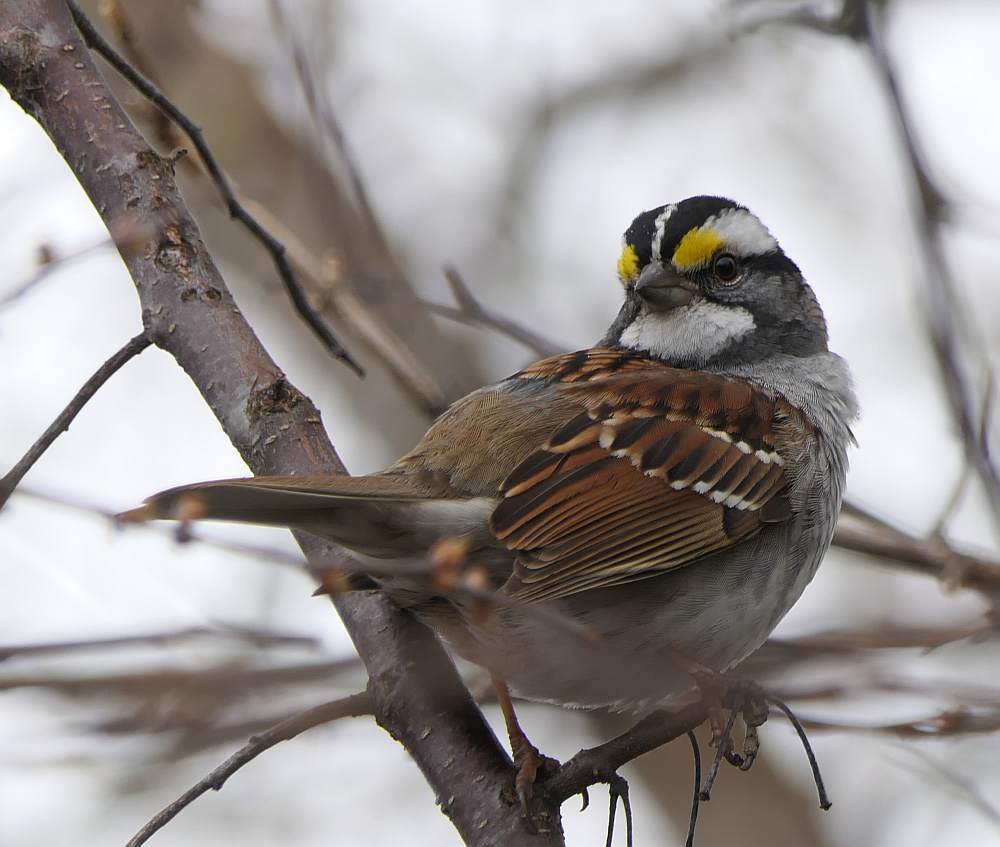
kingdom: Animalia
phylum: Chordata
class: Aves
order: Passeriformes
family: Passerellidae
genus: Zonotrichia
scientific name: Zonotrichia albicollis
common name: White-throated sparrow
